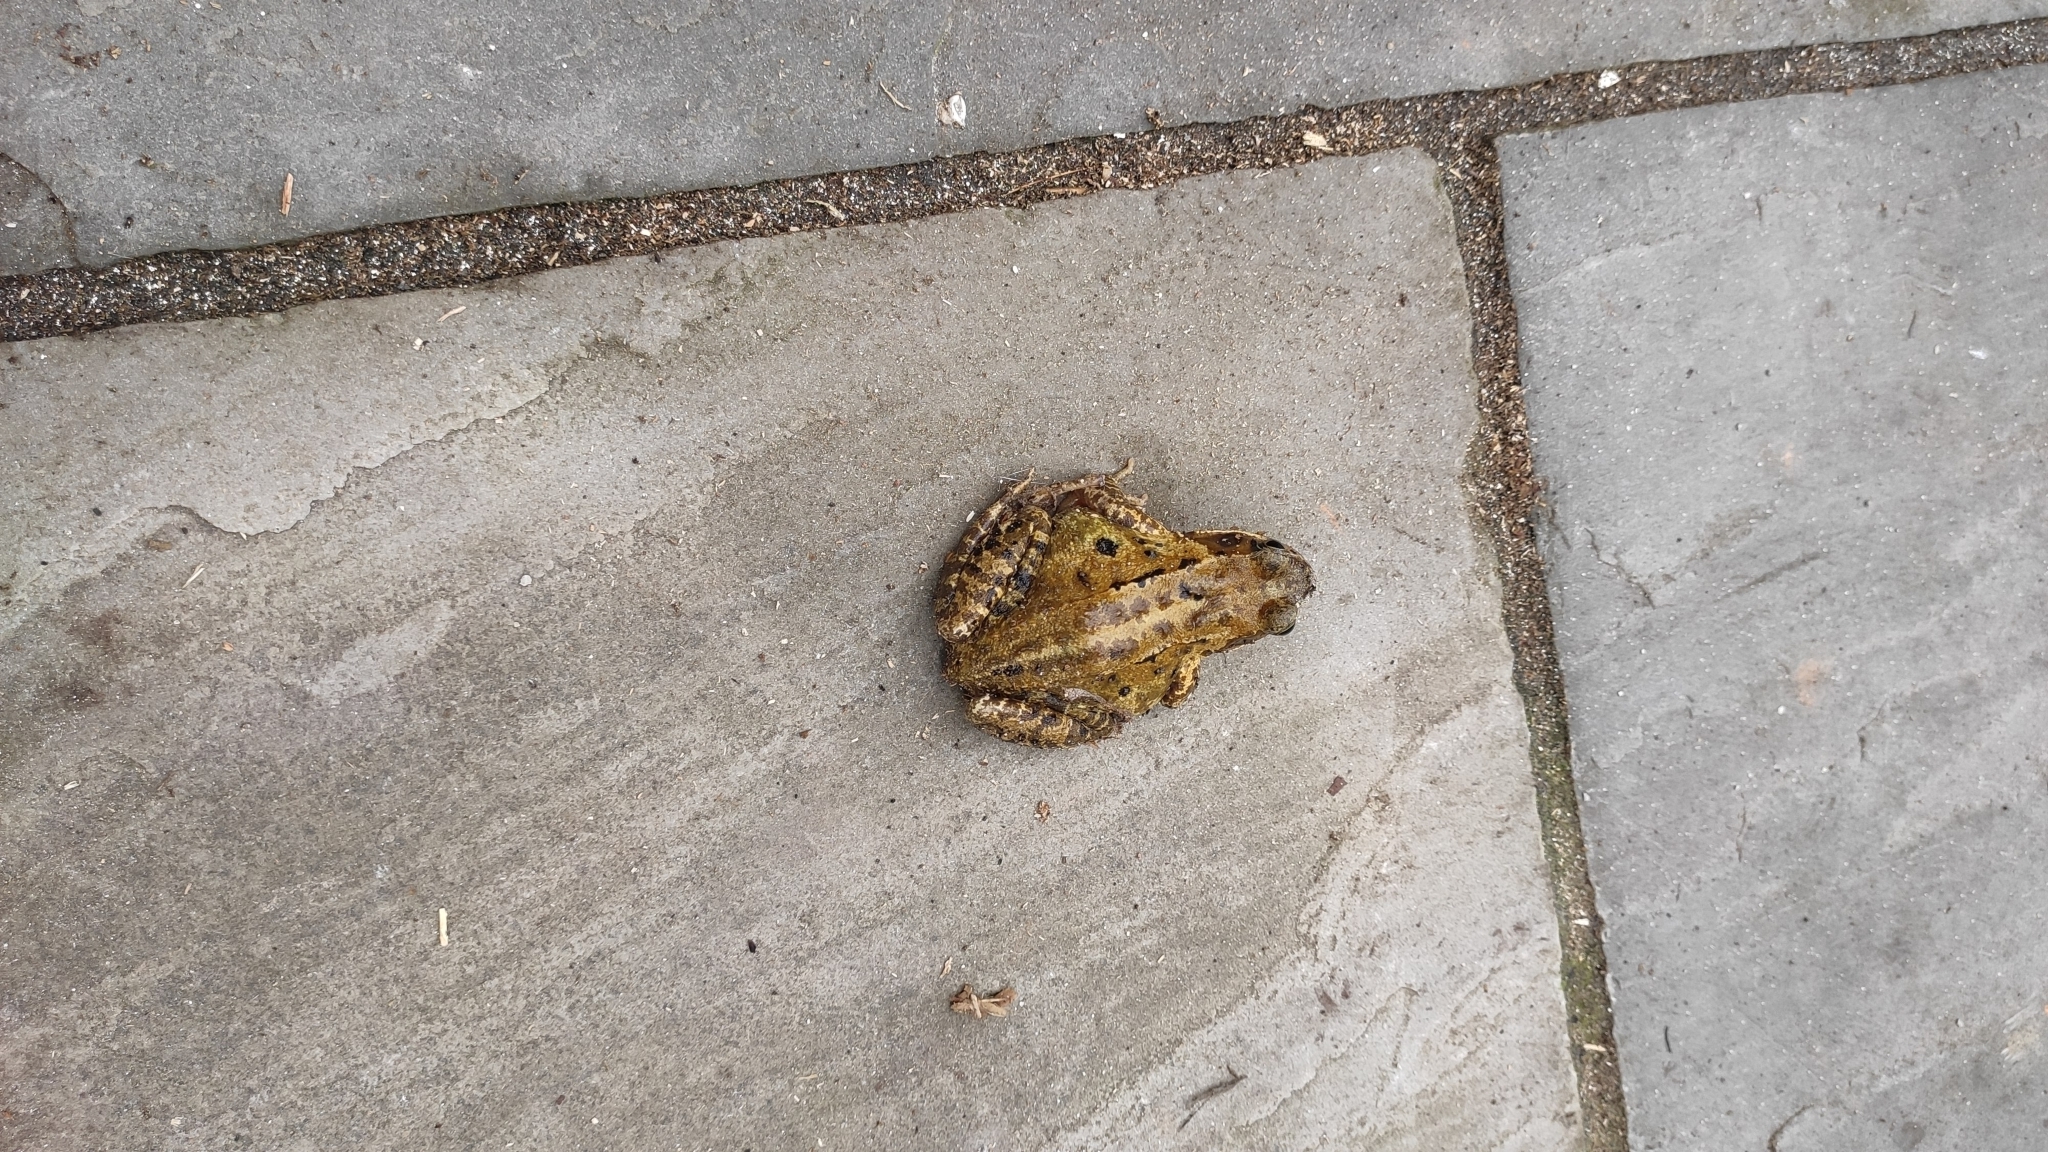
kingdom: Animalia
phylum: Chordata
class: Amphibia
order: Anura
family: Ranidae
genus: Rana
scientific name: Rana temporaria
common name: Common frog
